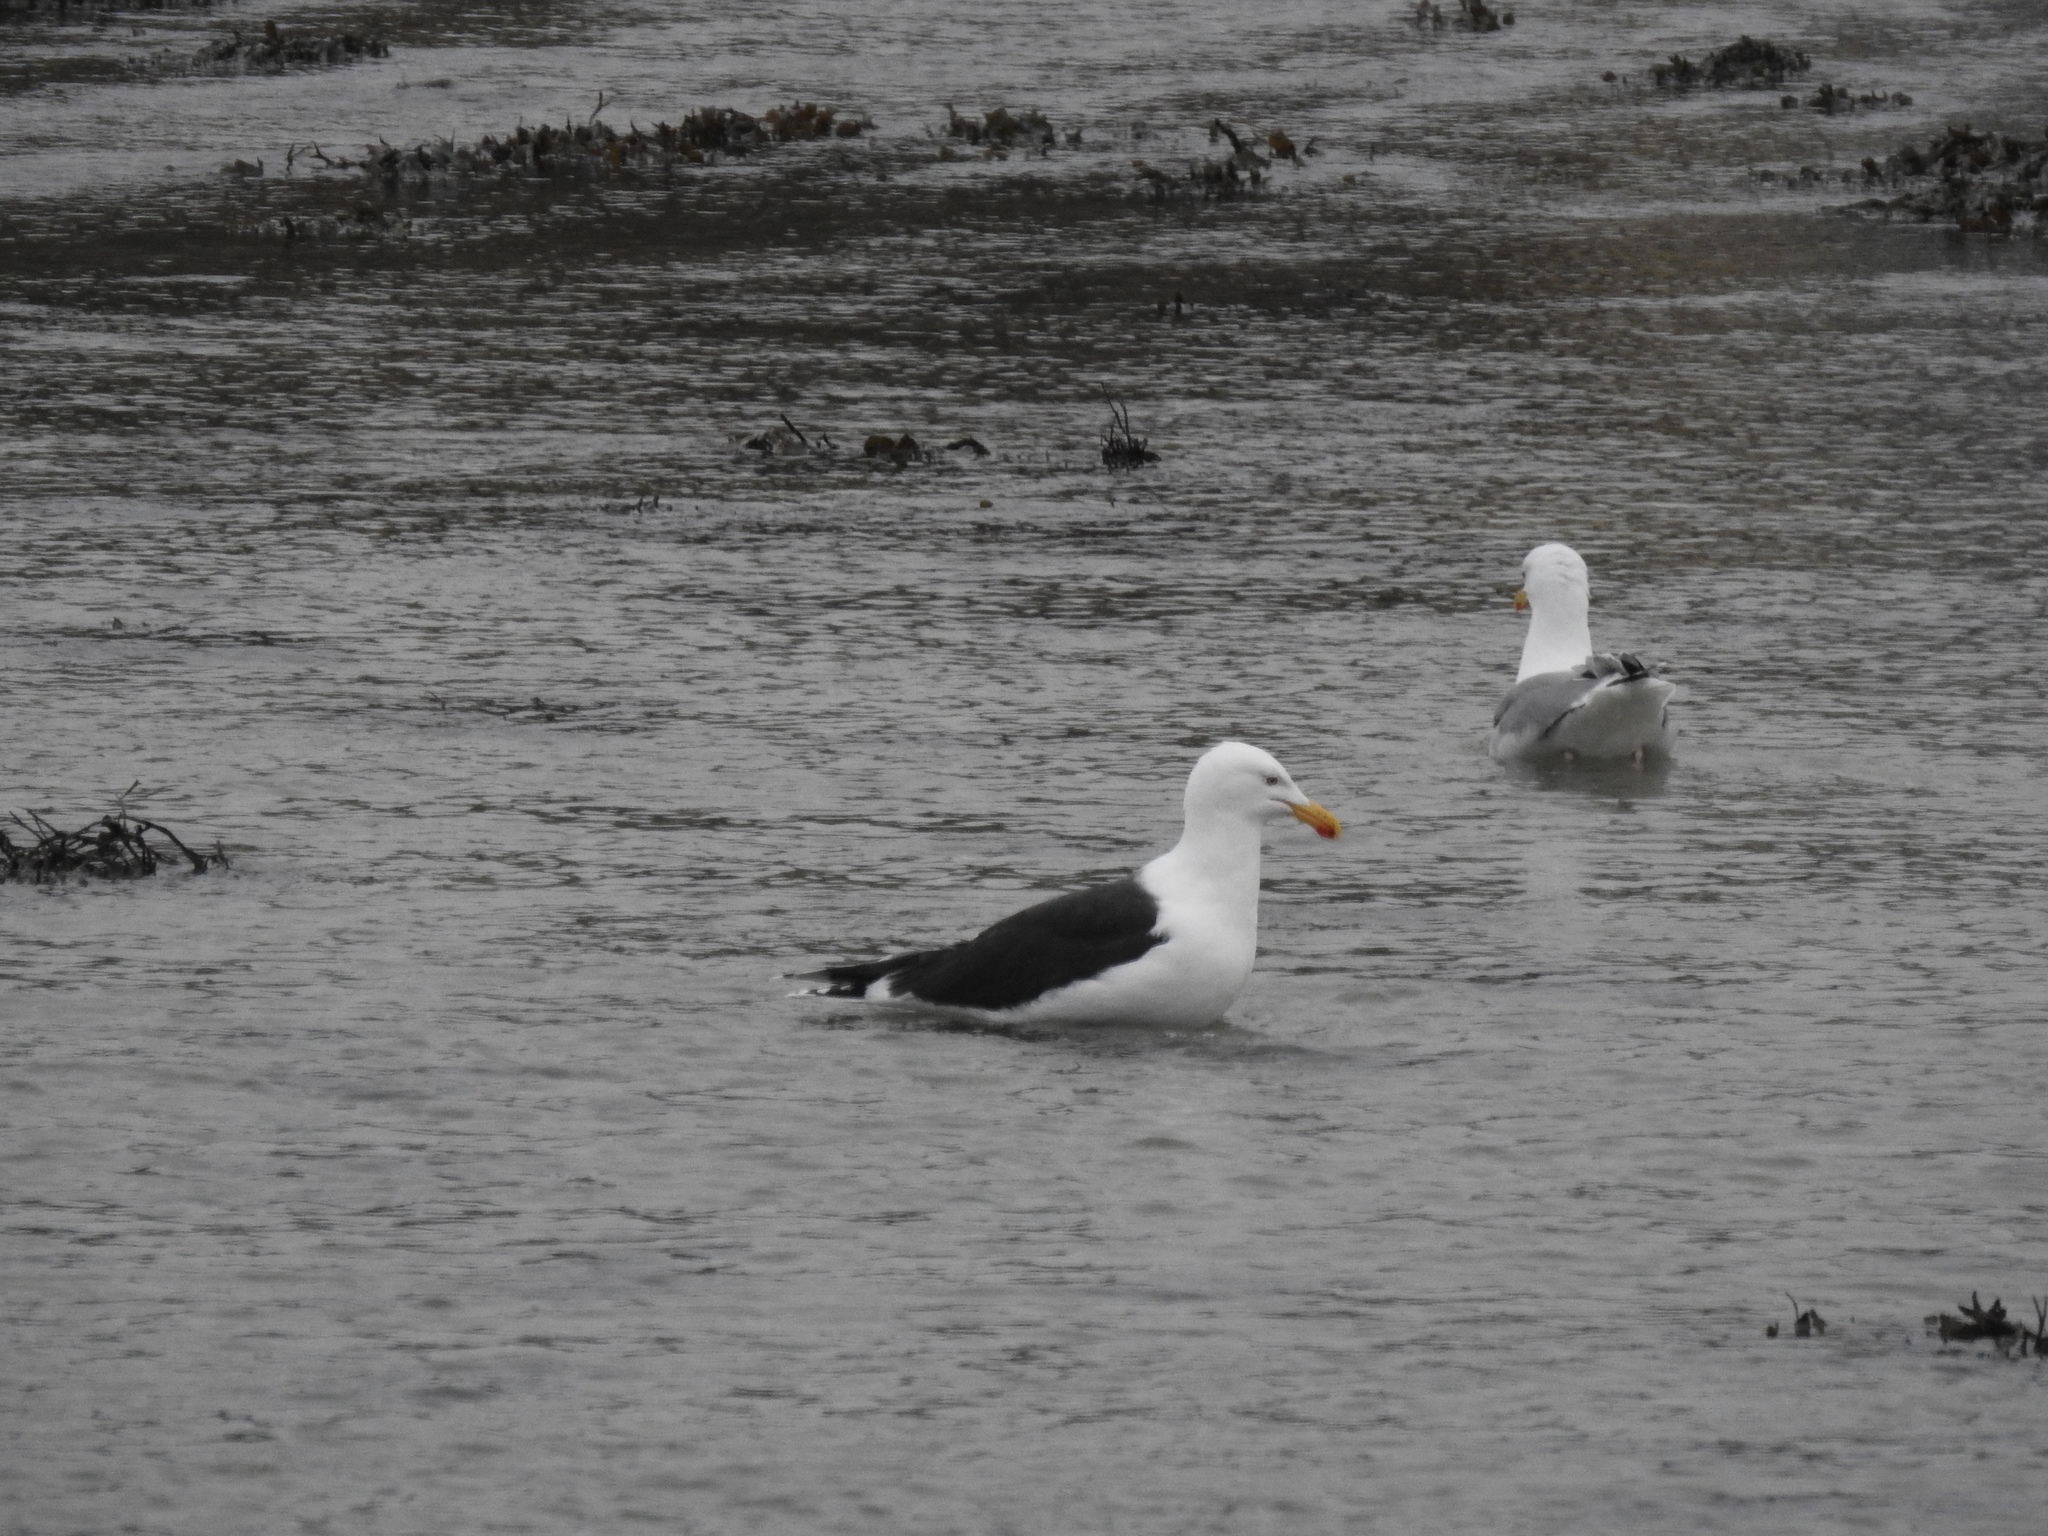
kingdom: Animalia
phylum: Chordata
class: Aves
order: Charadriiformes
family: Laridae
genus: Larus
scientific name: Larus marinus
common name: Great black-backed gull
